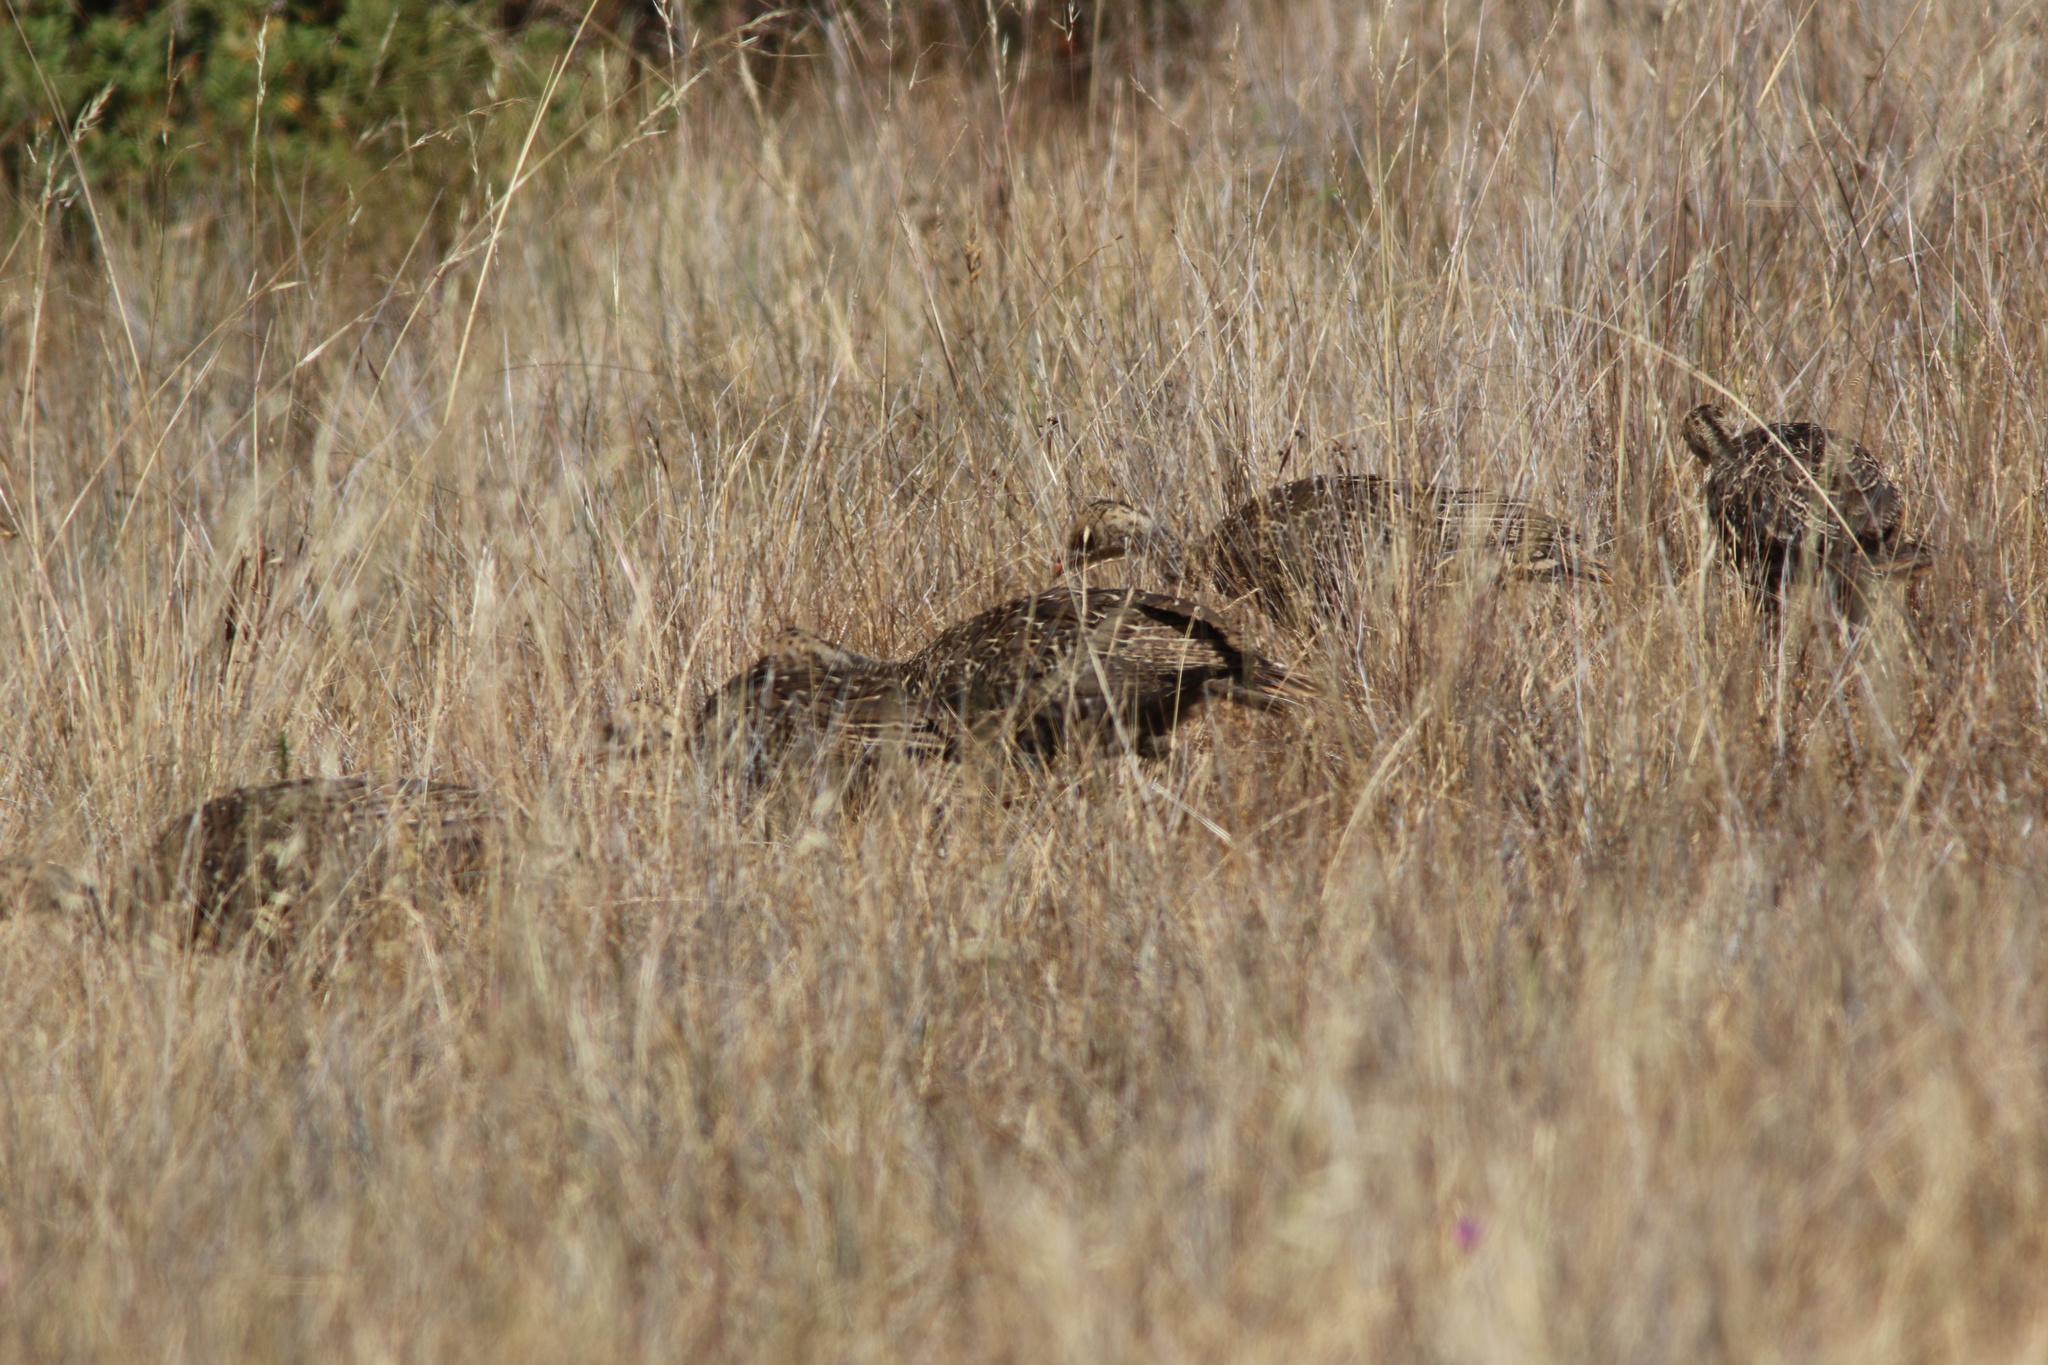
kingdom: Animalia
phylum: Chordata
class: Aves
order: Galliformes
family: Phasianidae
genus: Meleagris
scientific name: Meleagris gallopavo
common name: Wild turkey
